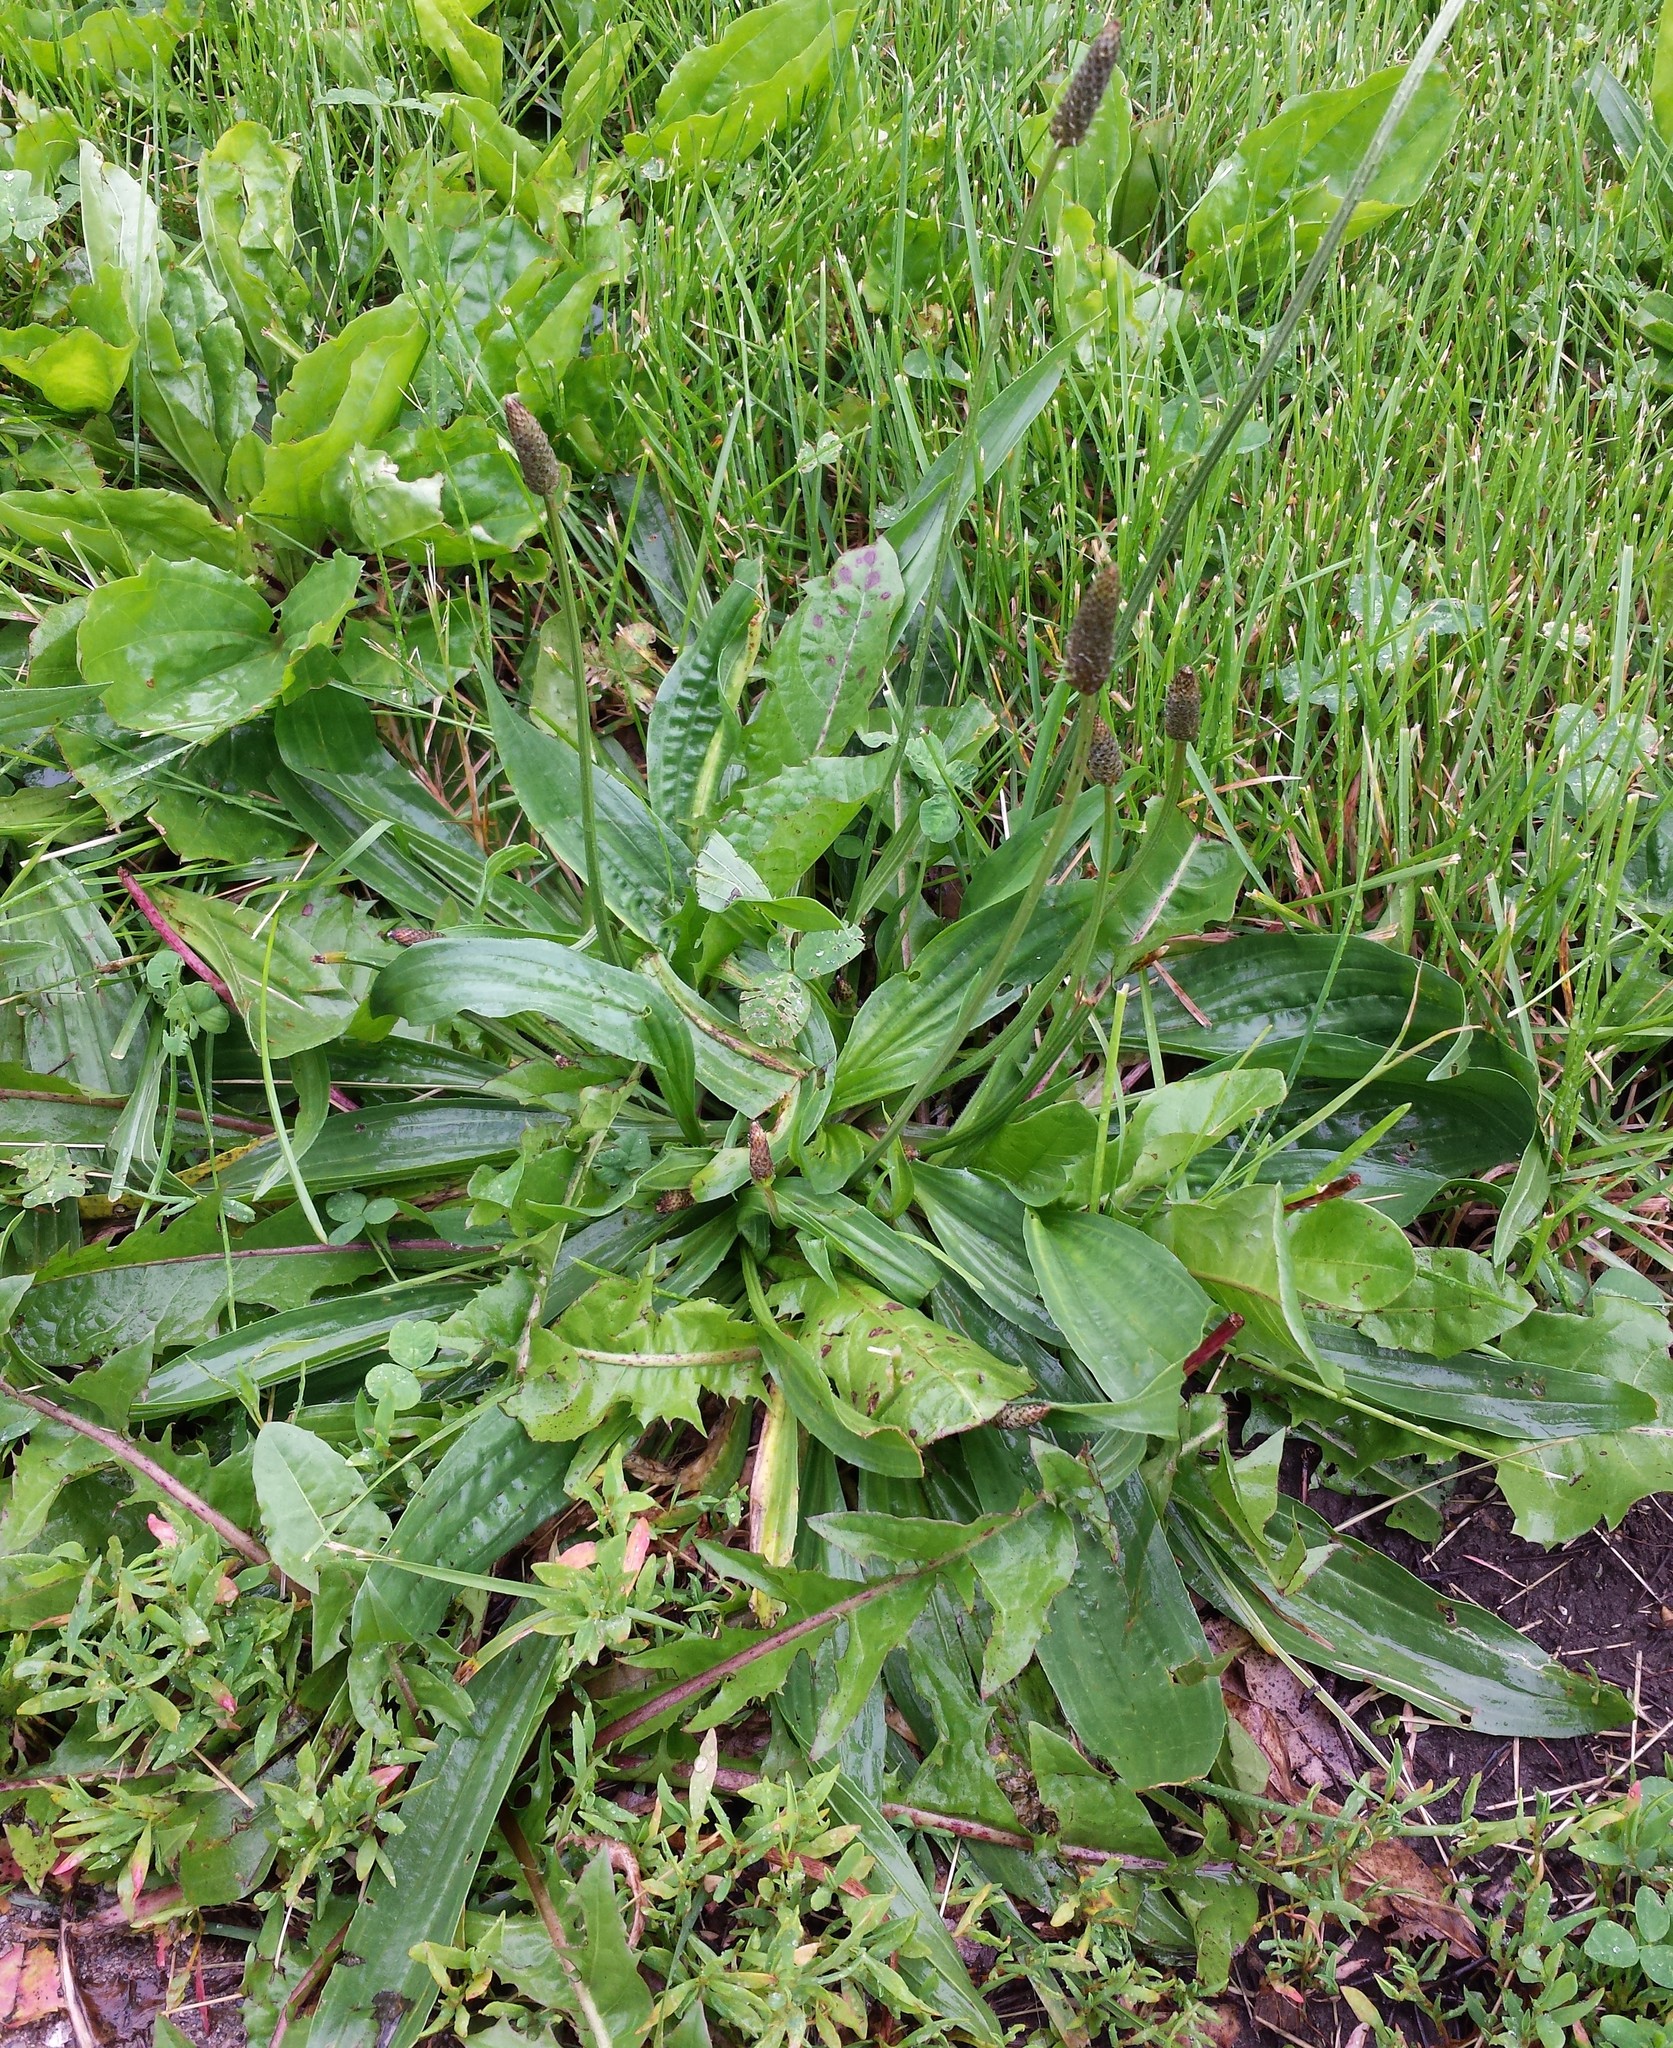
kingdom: Plantae
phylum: Tracheophyta
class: Magnoliopsida
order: Lamiales
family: Plantaginaceae
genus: Plantago
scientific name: Plantago lanceolata
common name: Ribwort plantain
